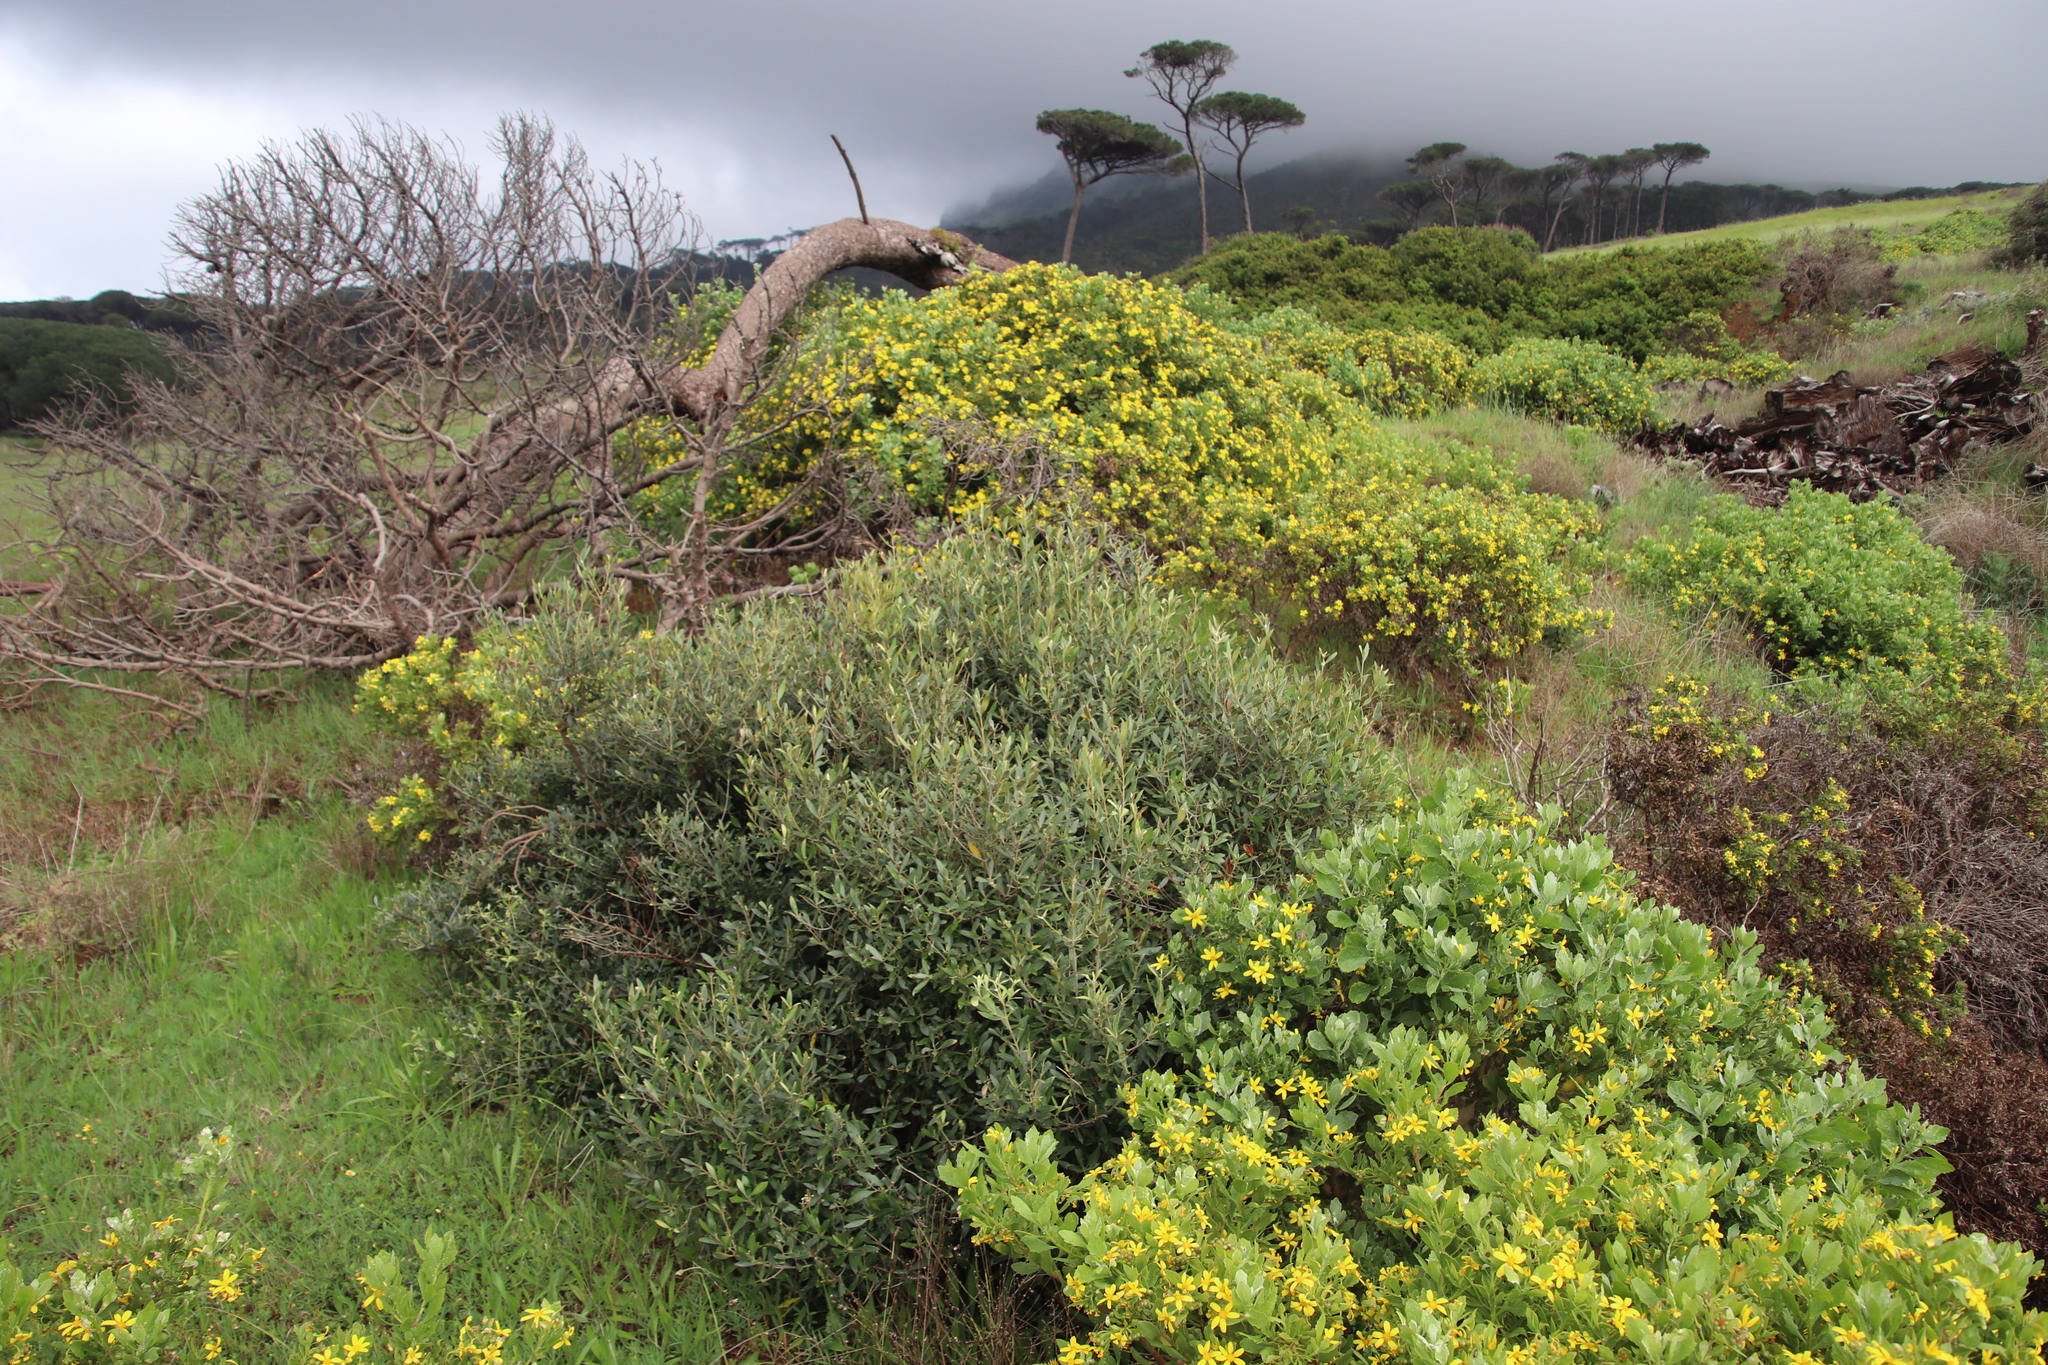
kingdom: Plantae
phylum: Tracheophyta
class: Magnoliopsida
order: Asterales
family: Asteraceae
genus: Osteospermum
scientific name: Osteospermum moniliferum
